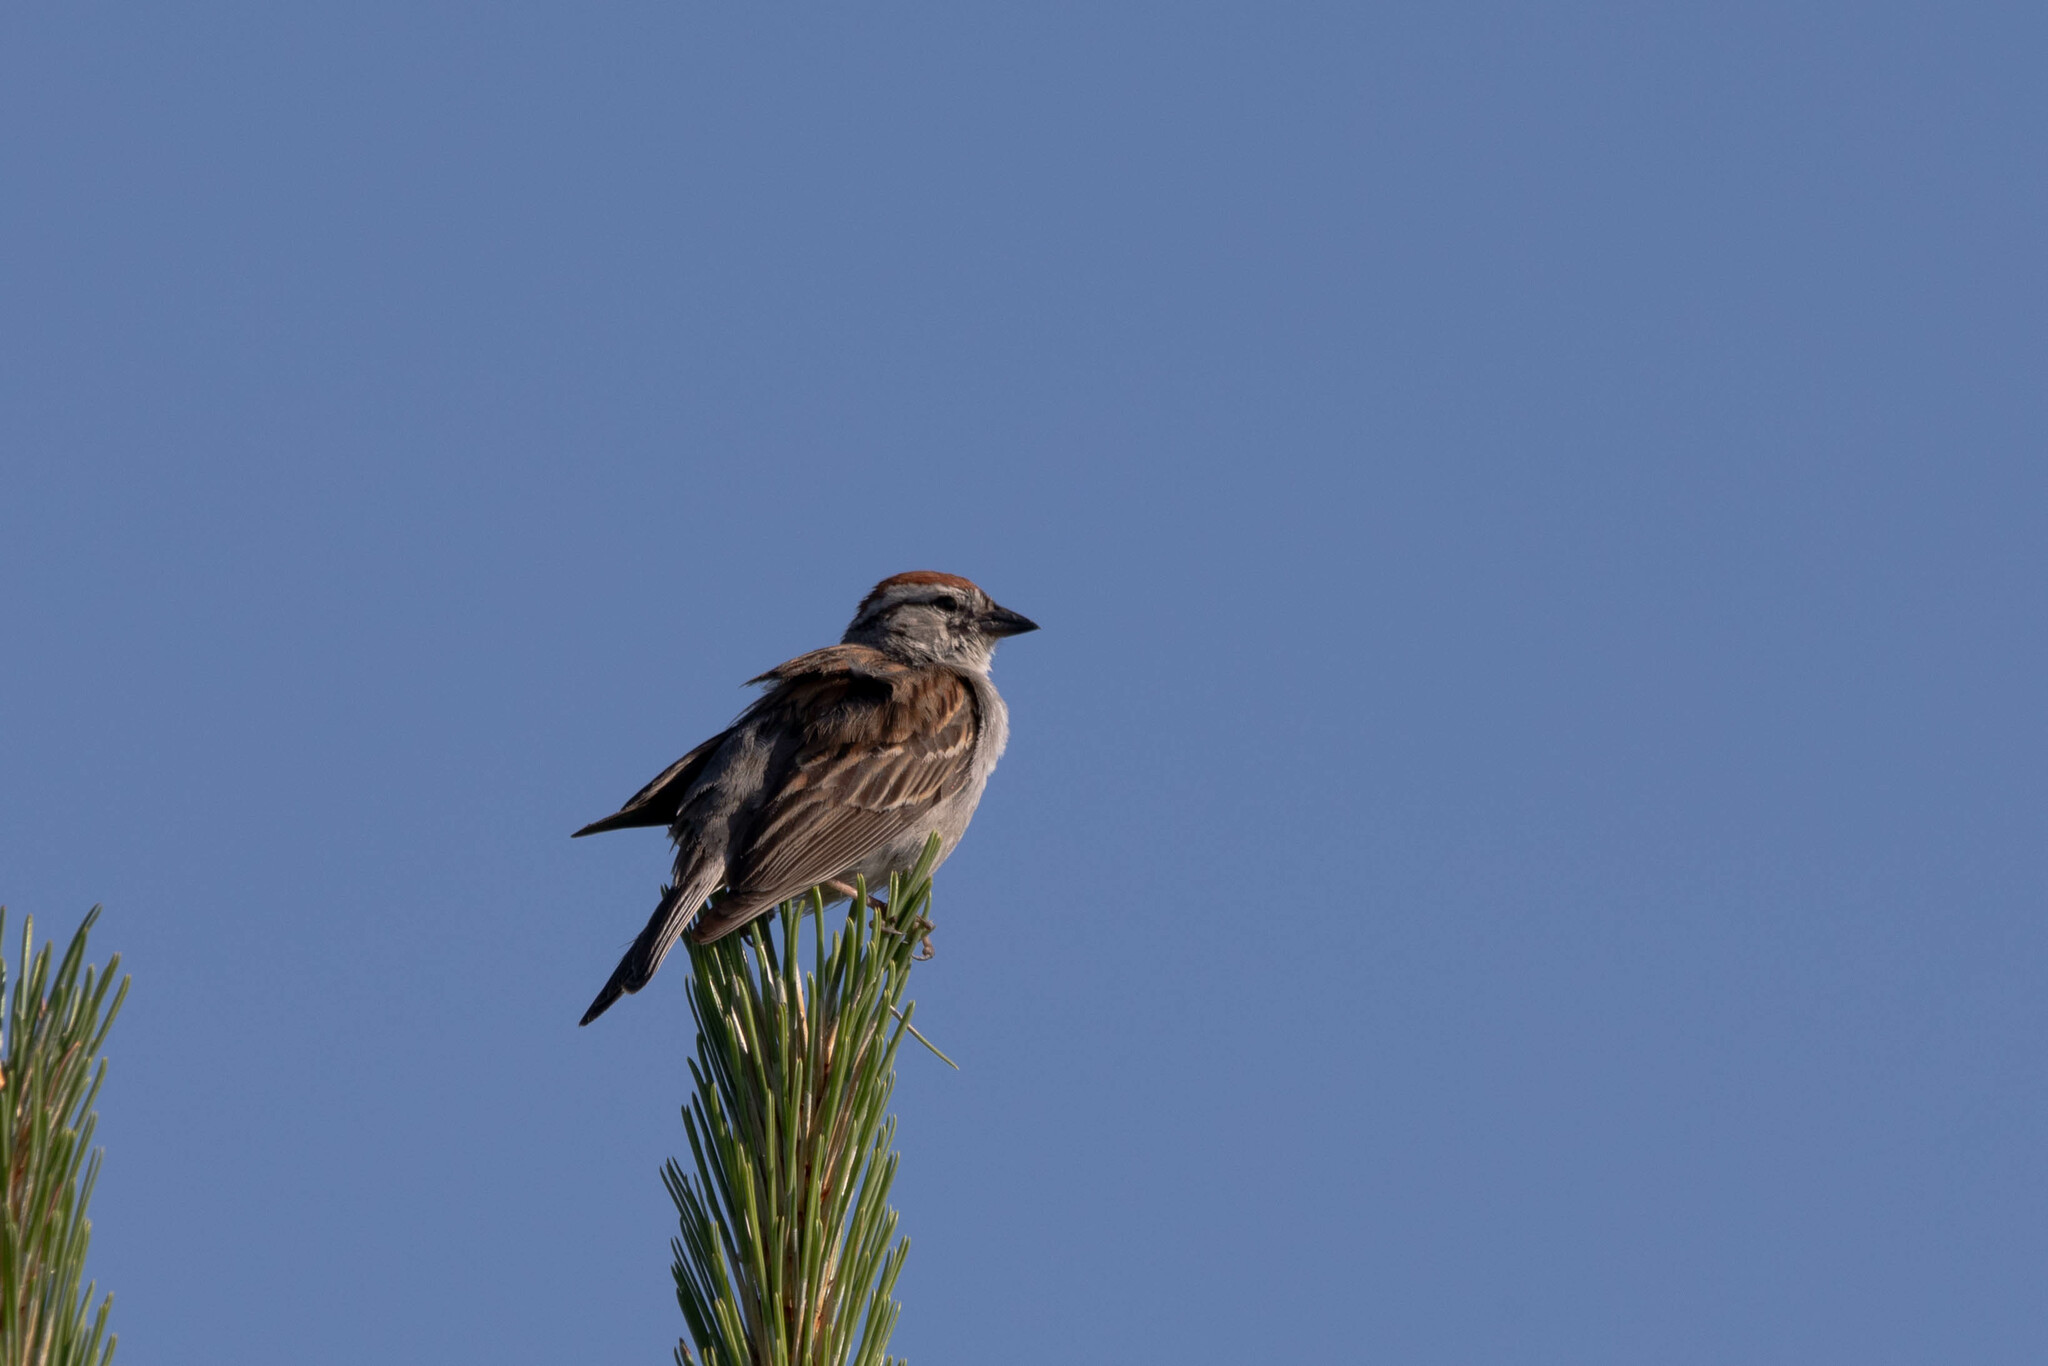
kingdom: Animalia
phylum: Chordata
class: Aves
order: Passeriformes
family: Passerellidae
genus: Spizella
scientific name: Spizella passerina
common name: Chipping sparrow
